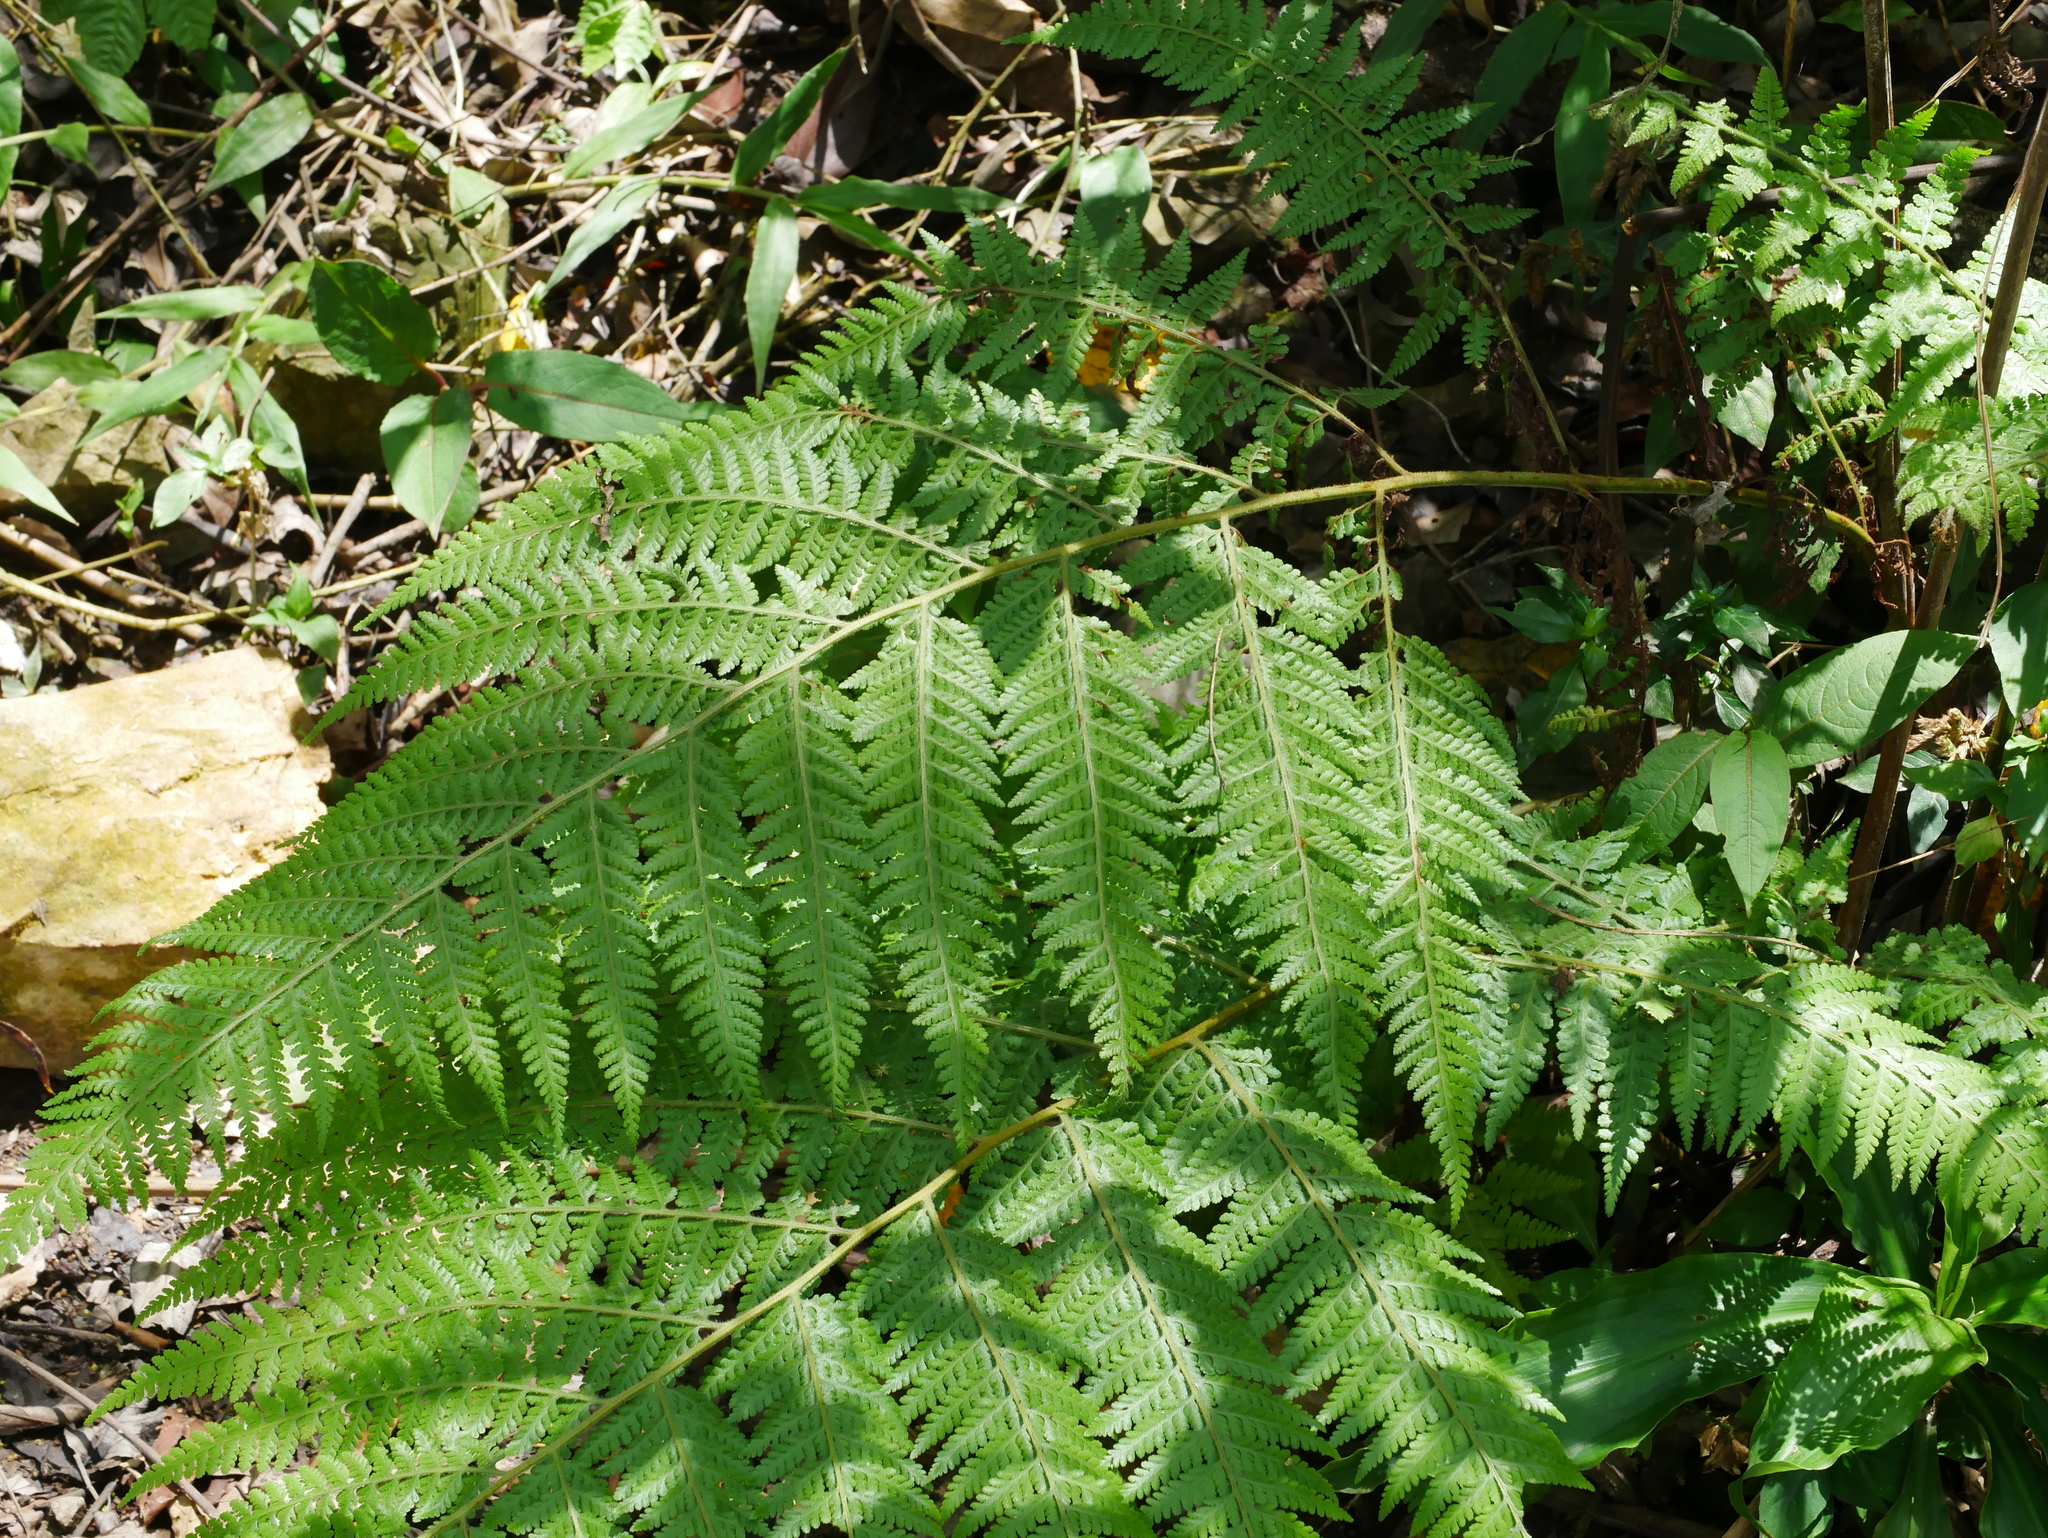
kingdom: Plantae
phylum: Tracheophyta
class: Polypodiopsida
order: Polypodiales
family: Dennstaedtiaceae
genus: Microlepia
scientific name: Microlepia speluncae
